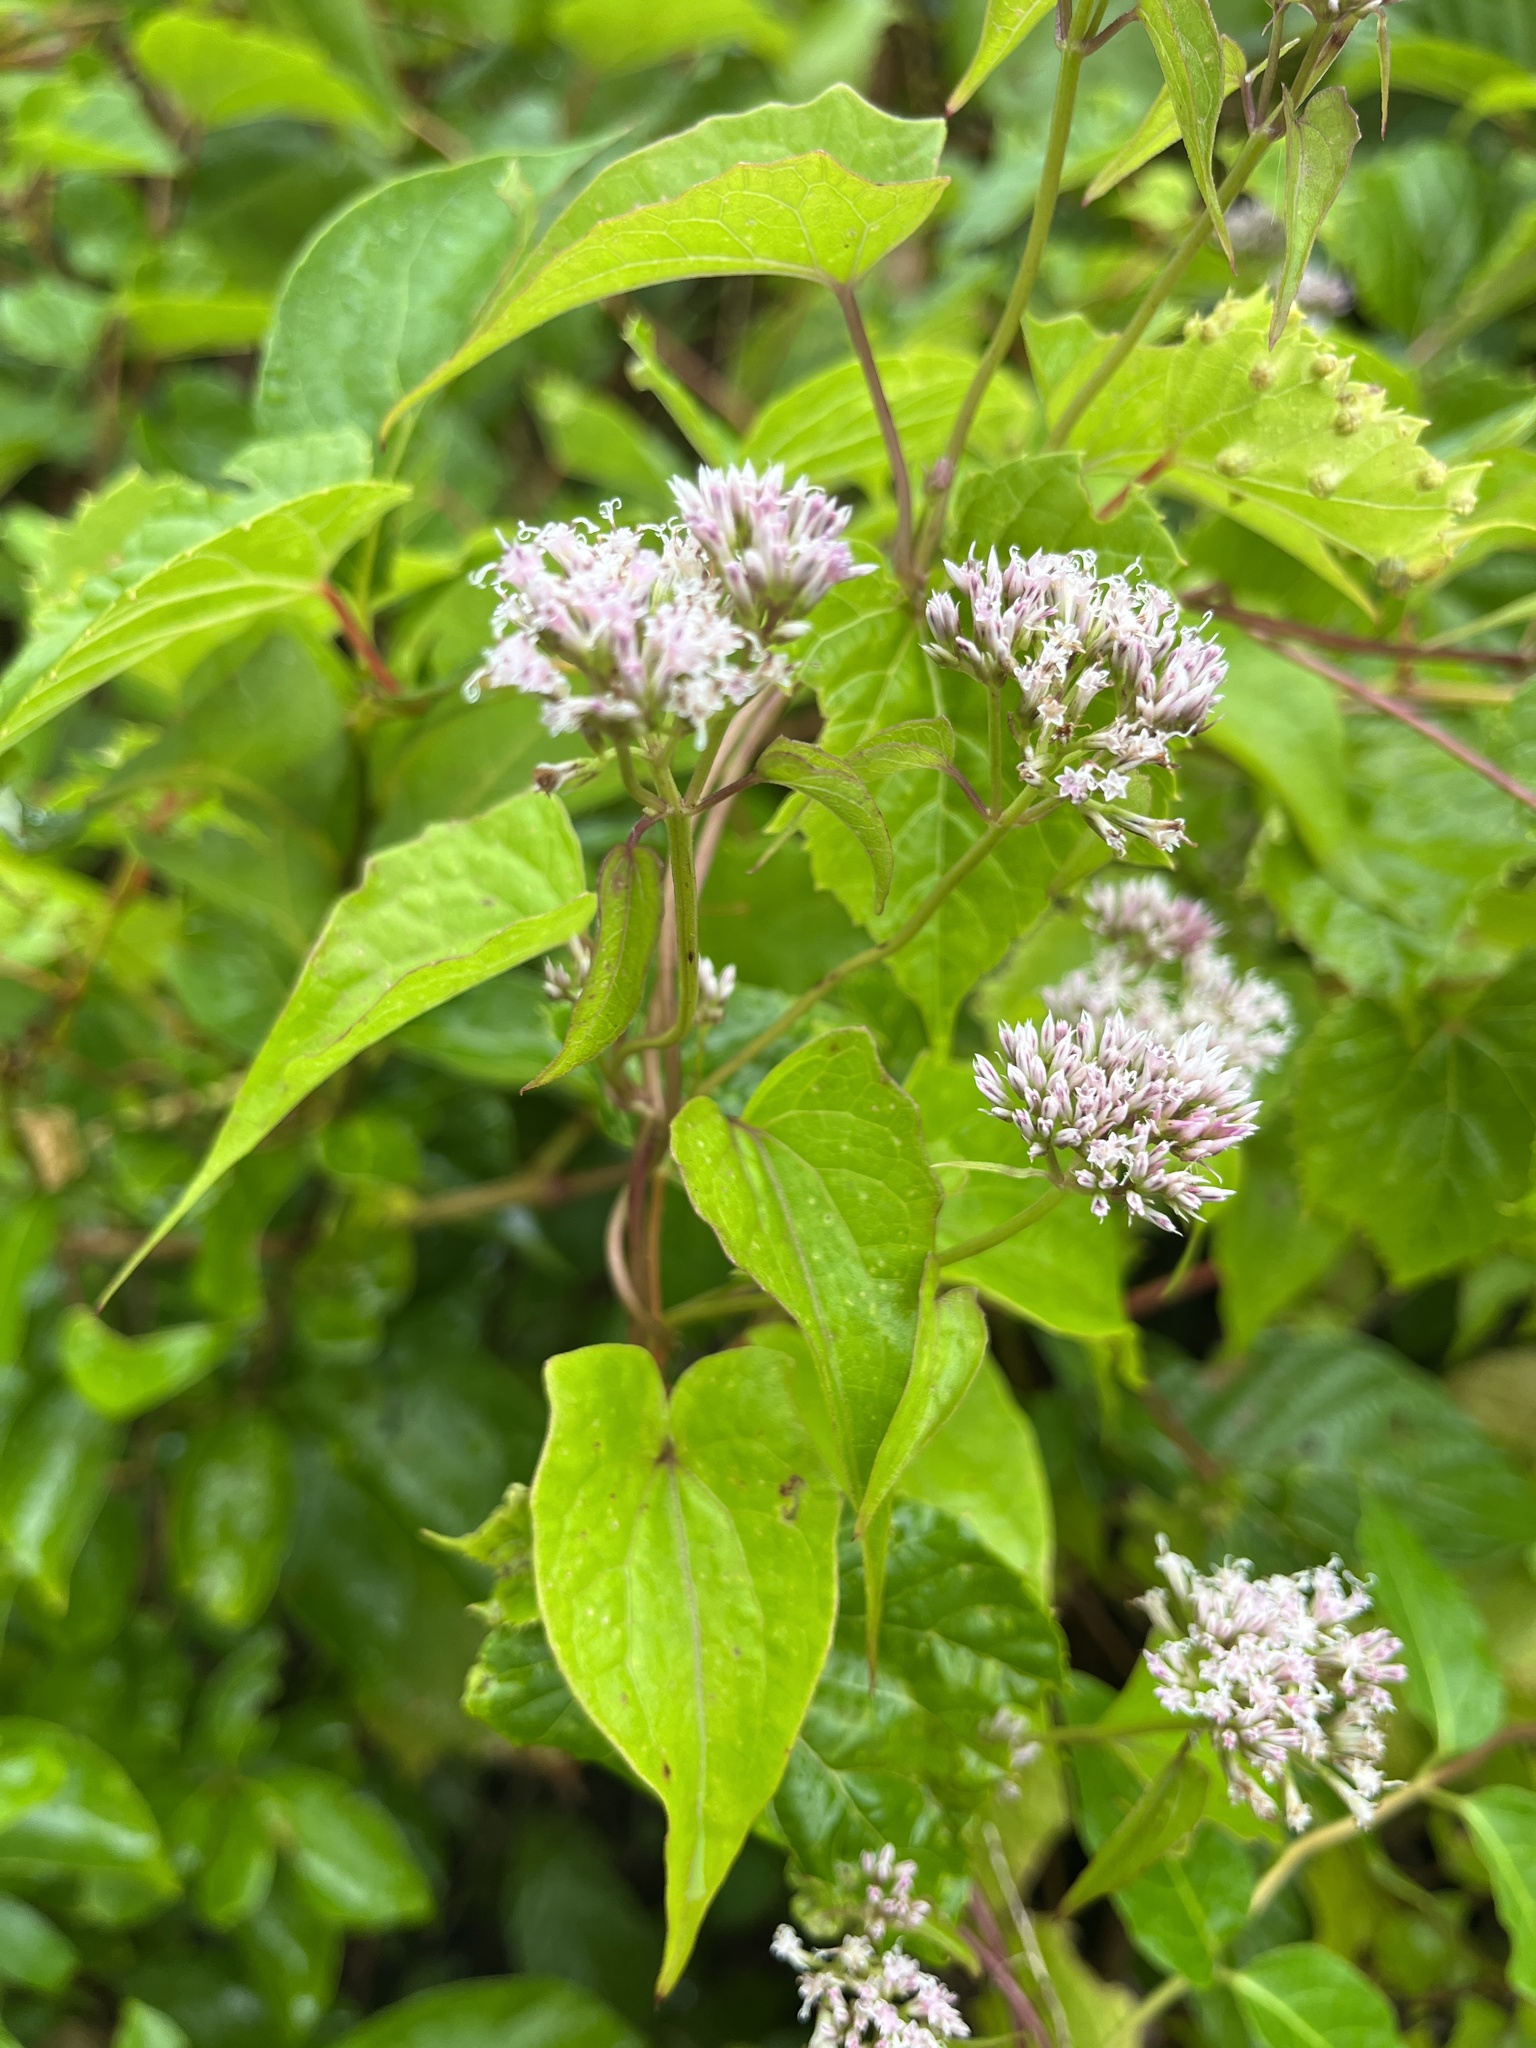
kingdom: Plantae
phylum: Tracheophyta
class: Magnoliopsida
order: Asterales
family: Asteraceae
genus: Mikania
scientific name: Mikania scandens
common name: Climbing hempvine
